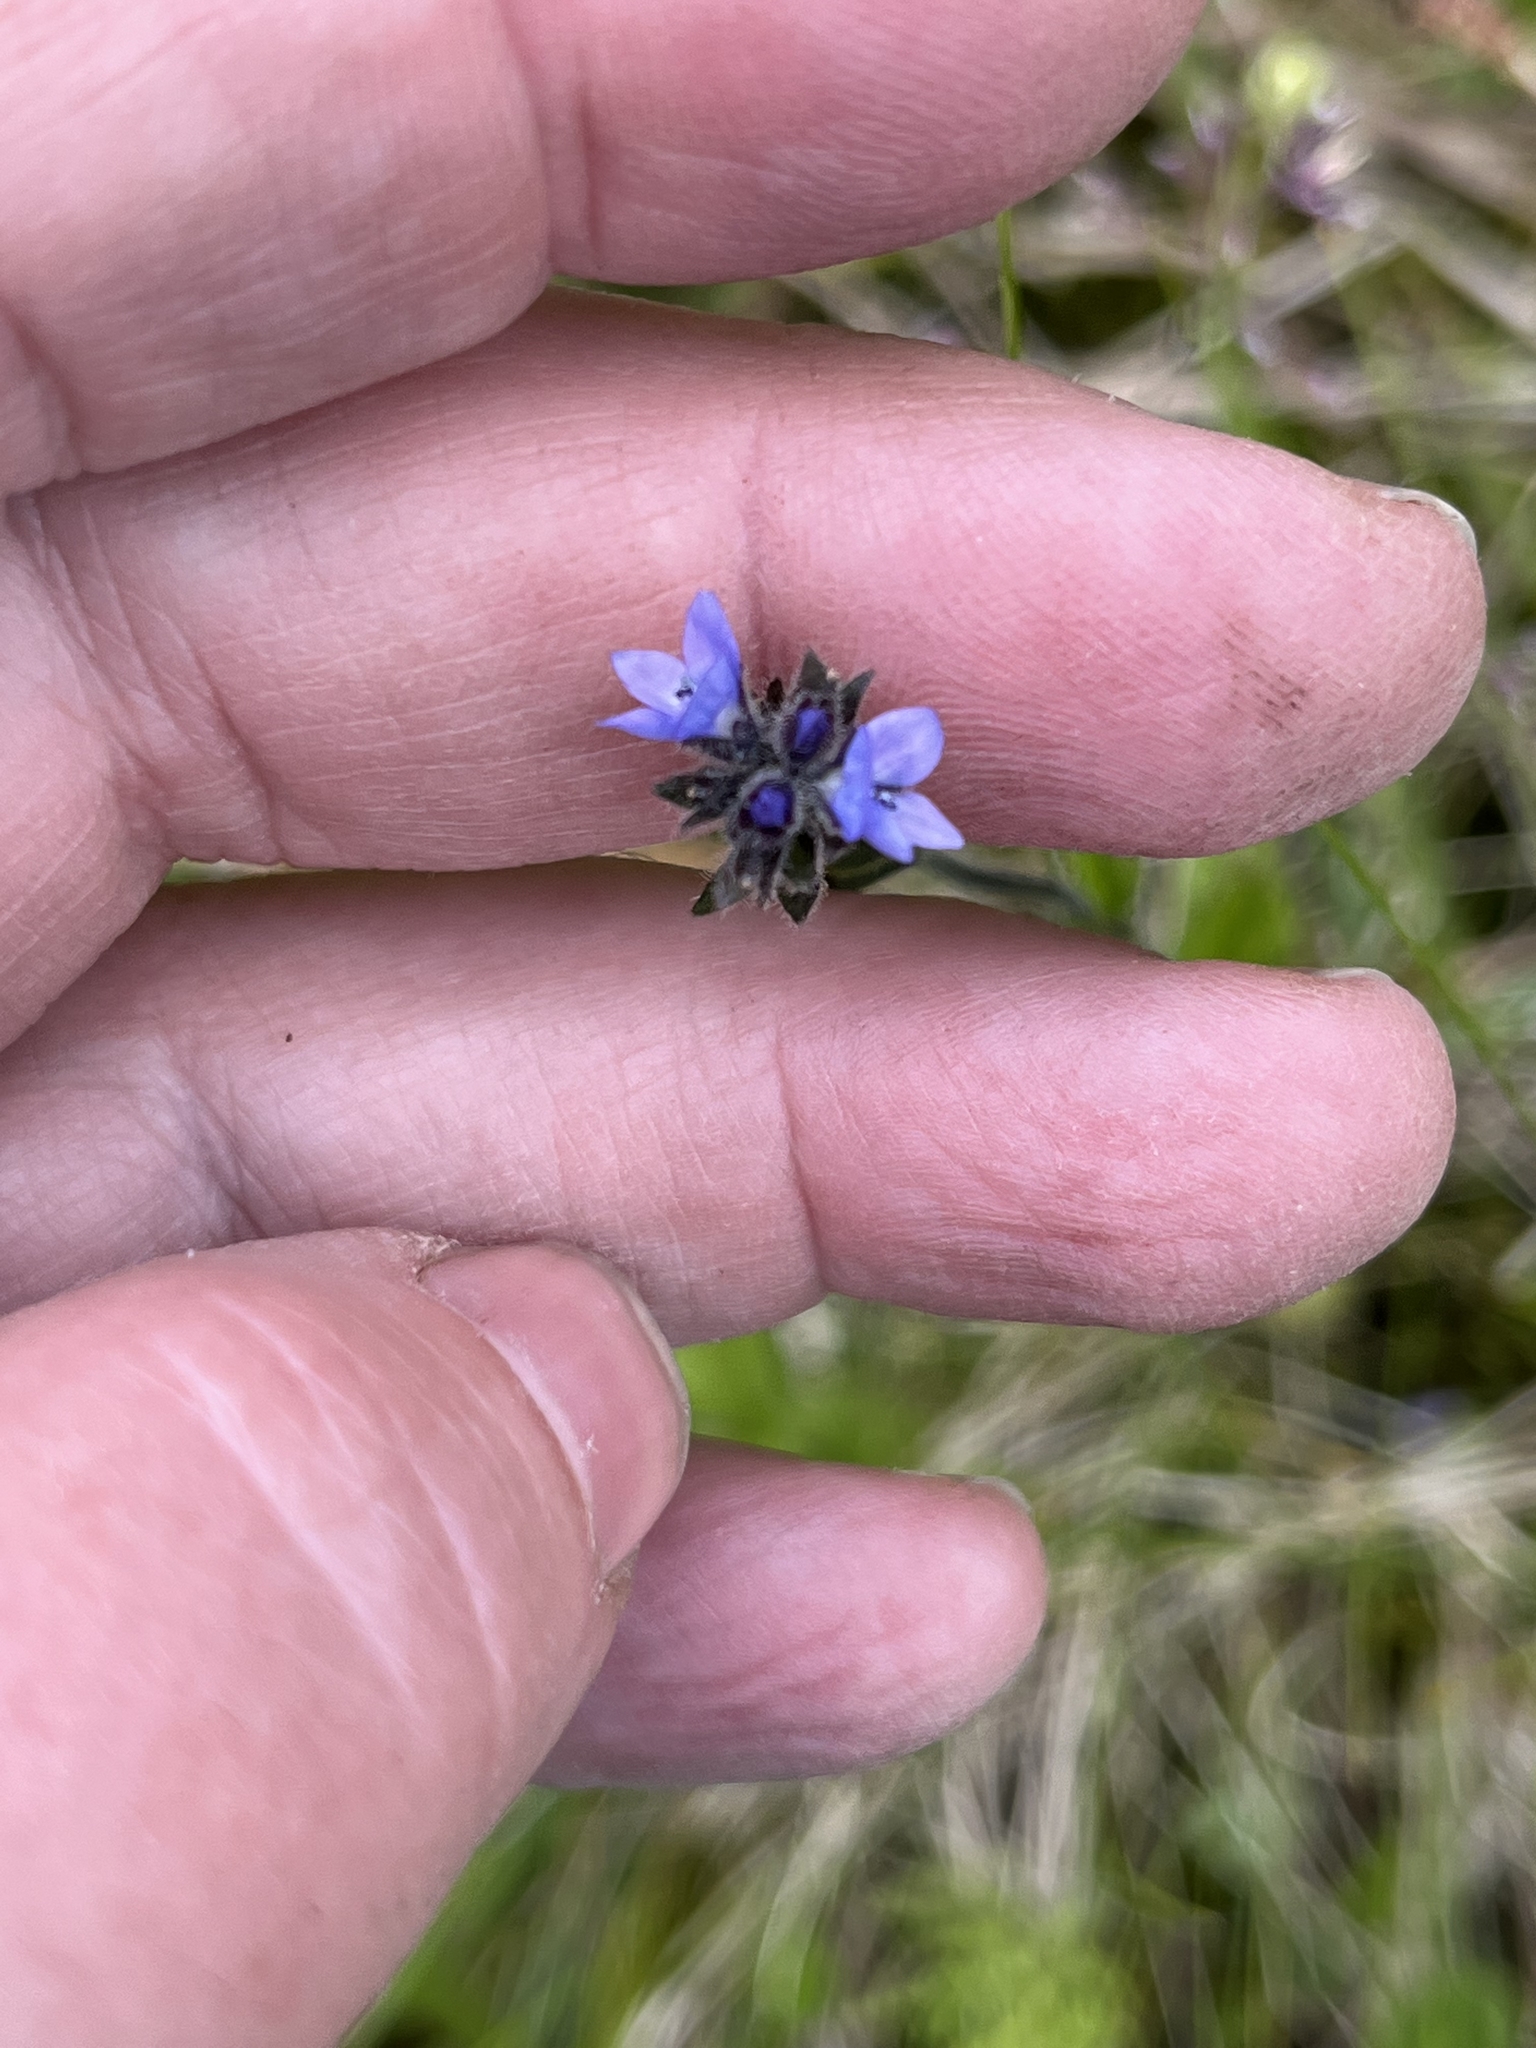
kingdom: Plantae
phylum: Tracheophyta
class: Magnoliopsida
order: Lamiales
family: Plantaginaceae
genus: Veronica
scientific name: Veronica wormskjoldii
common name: American alpine speedwell
